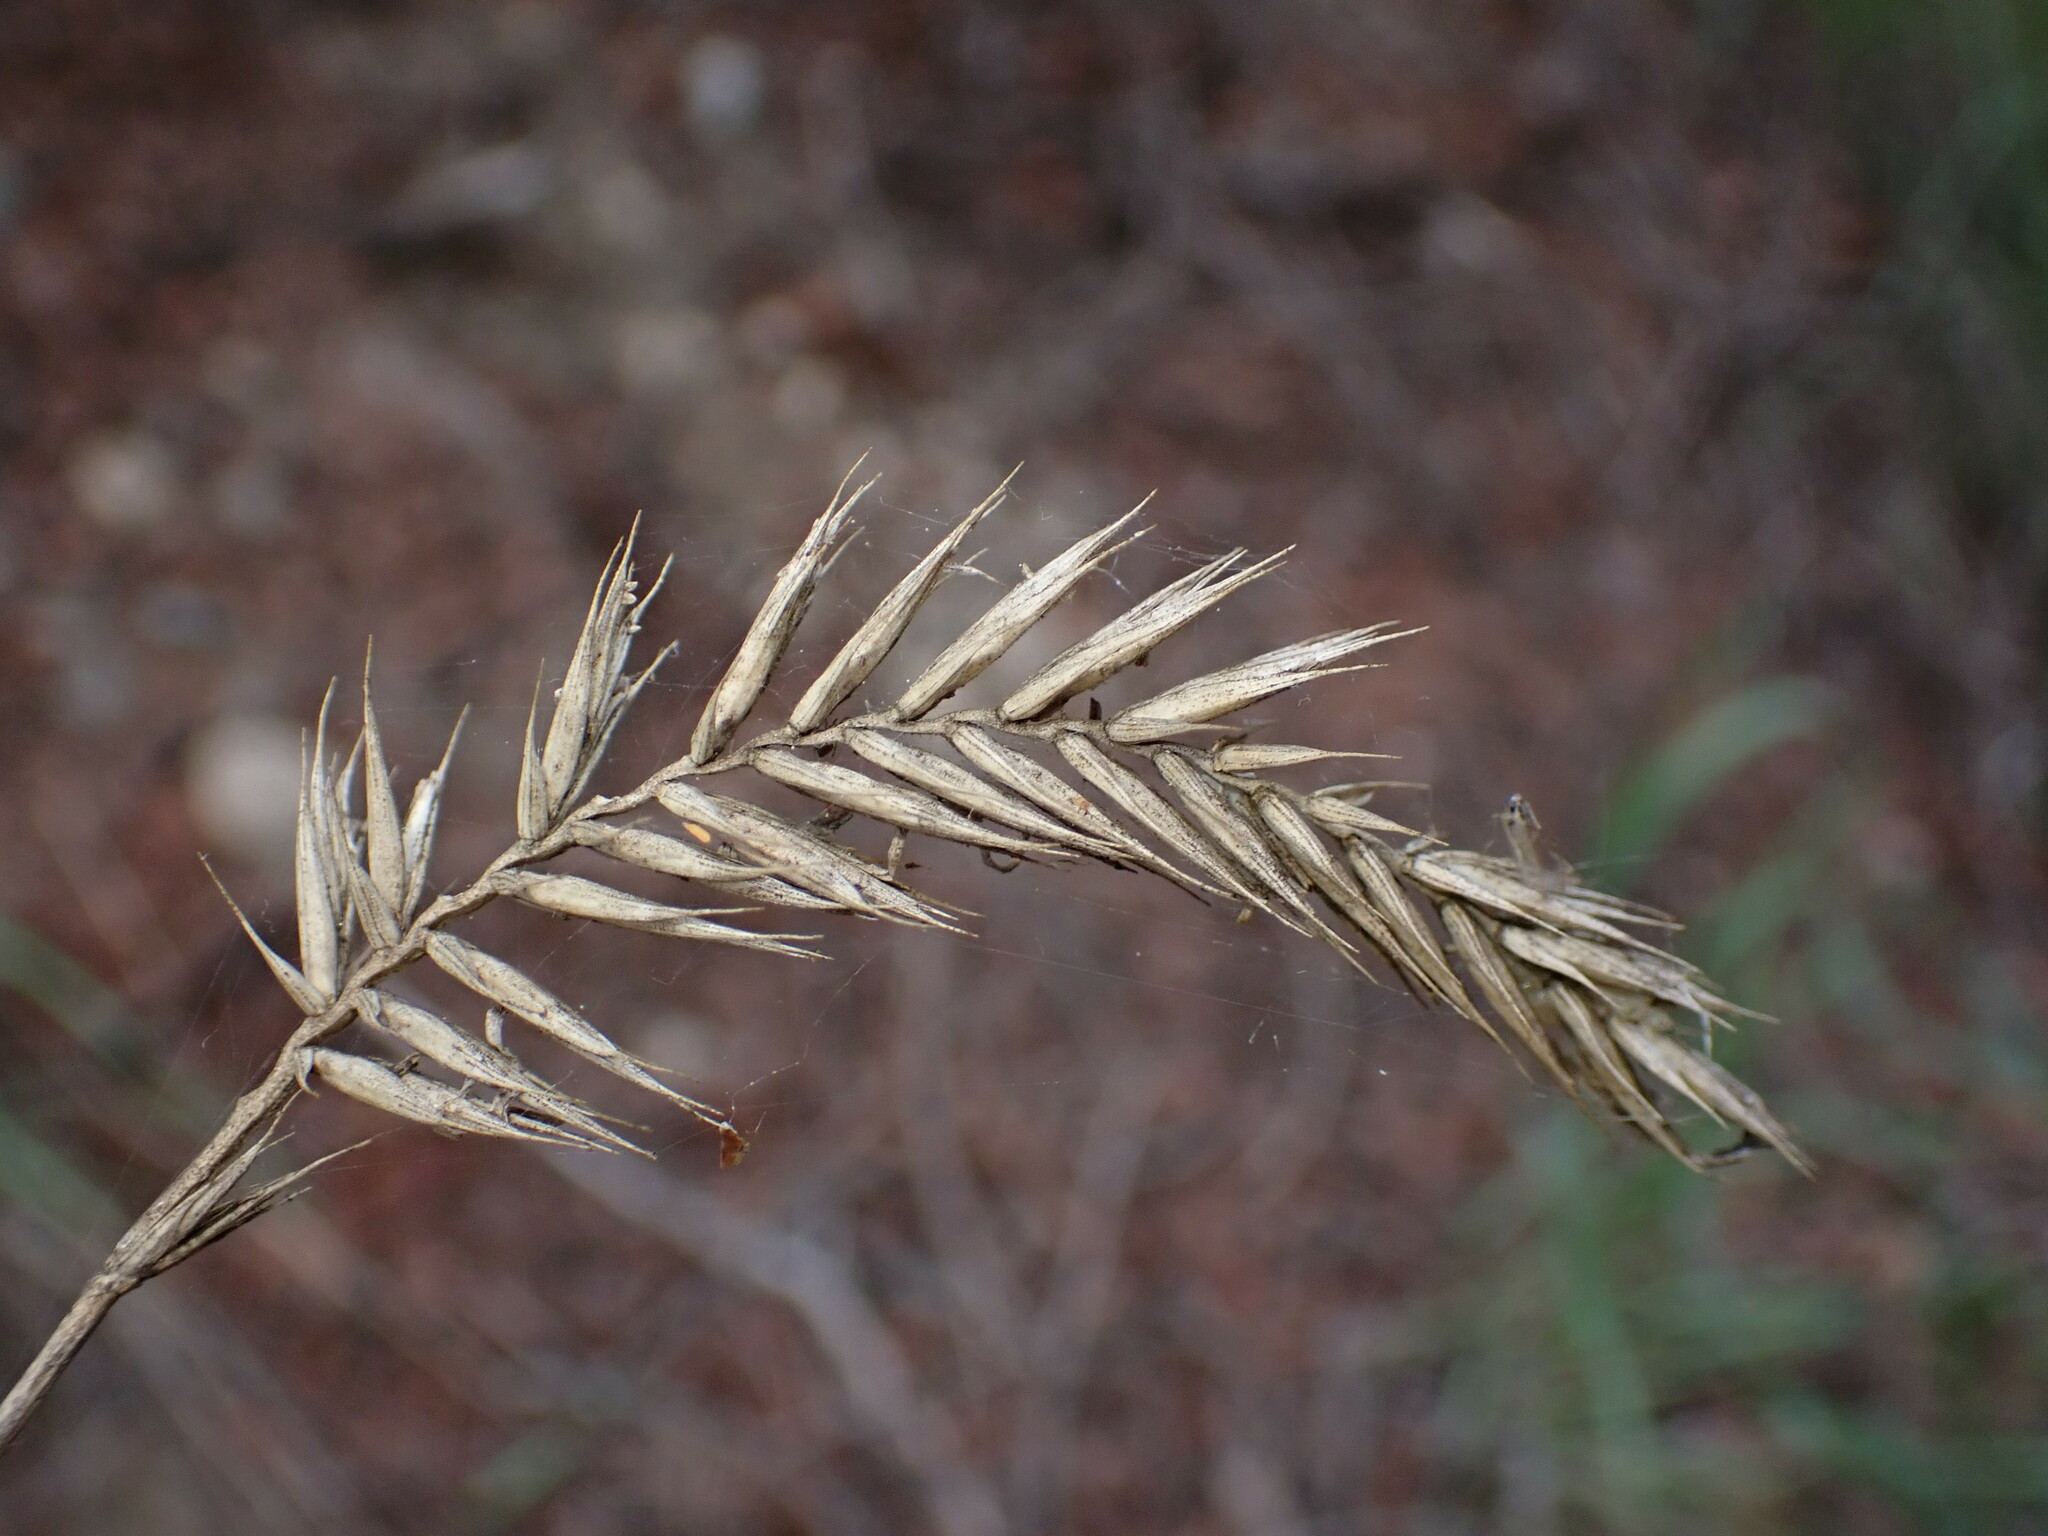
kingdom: Plantae
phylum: Tracheophyta
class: Liliopsida
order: Poales
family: Poaceae
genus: Agropyron
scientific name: Agropyron cristatum
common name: Crested wheatgrass
